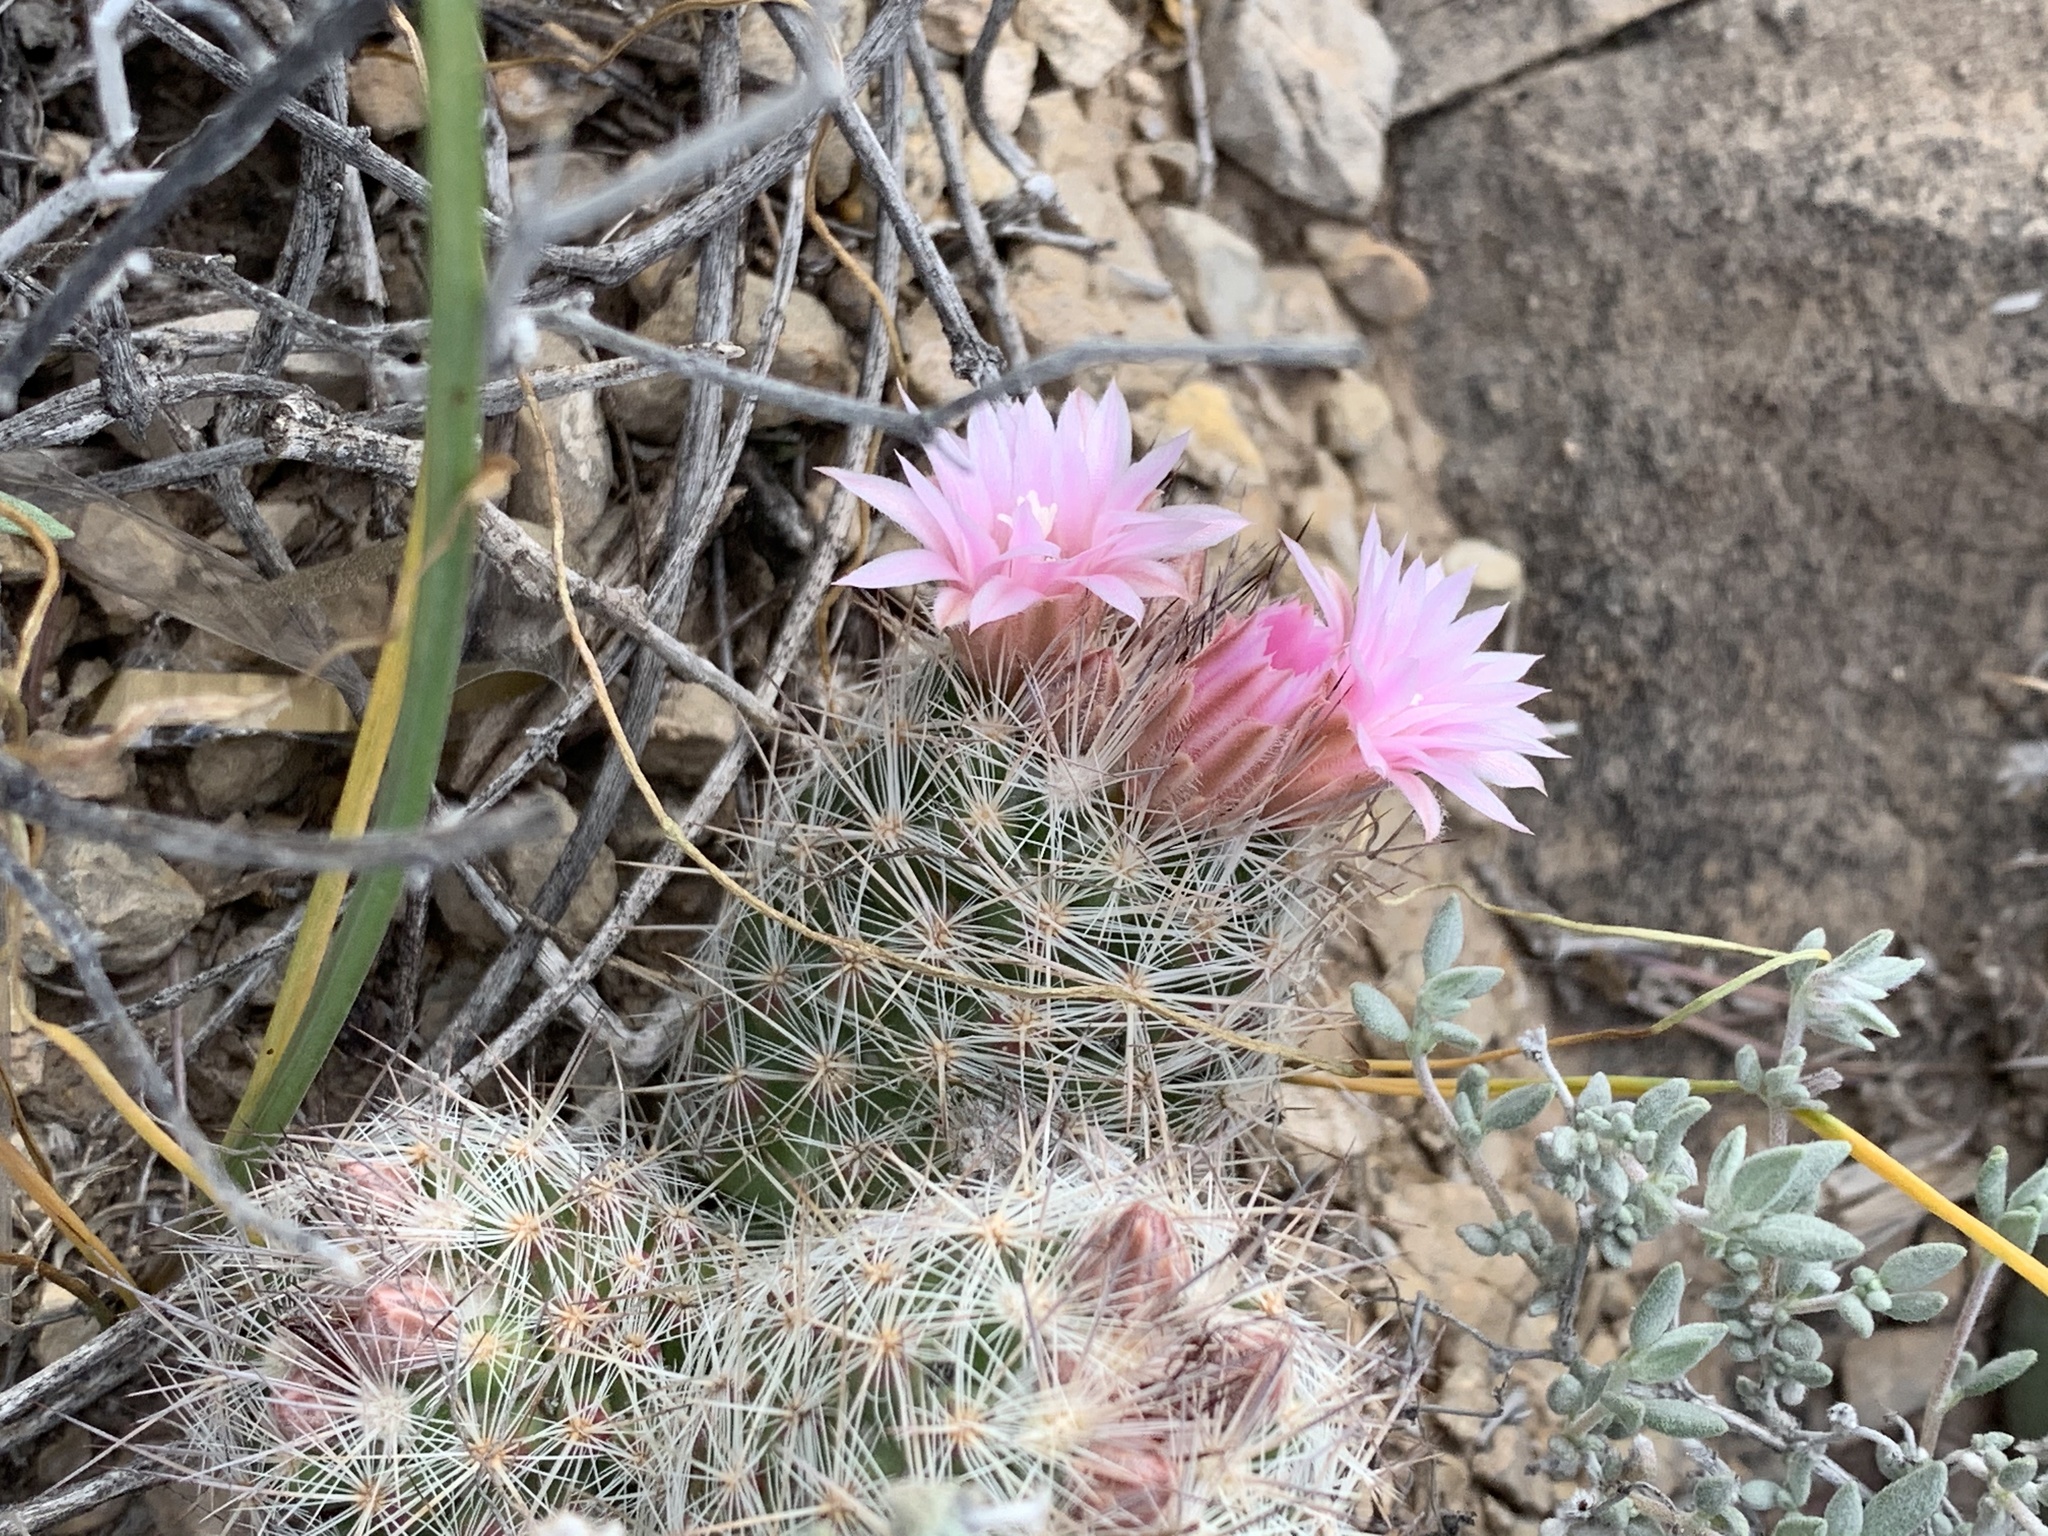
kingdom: Plantae
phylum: Tracheophyta
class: Magnoliopsida
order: Caryophyllales
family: Cactaceae
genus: Pelecyphora
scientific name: Pelecyphora tuberculosa
